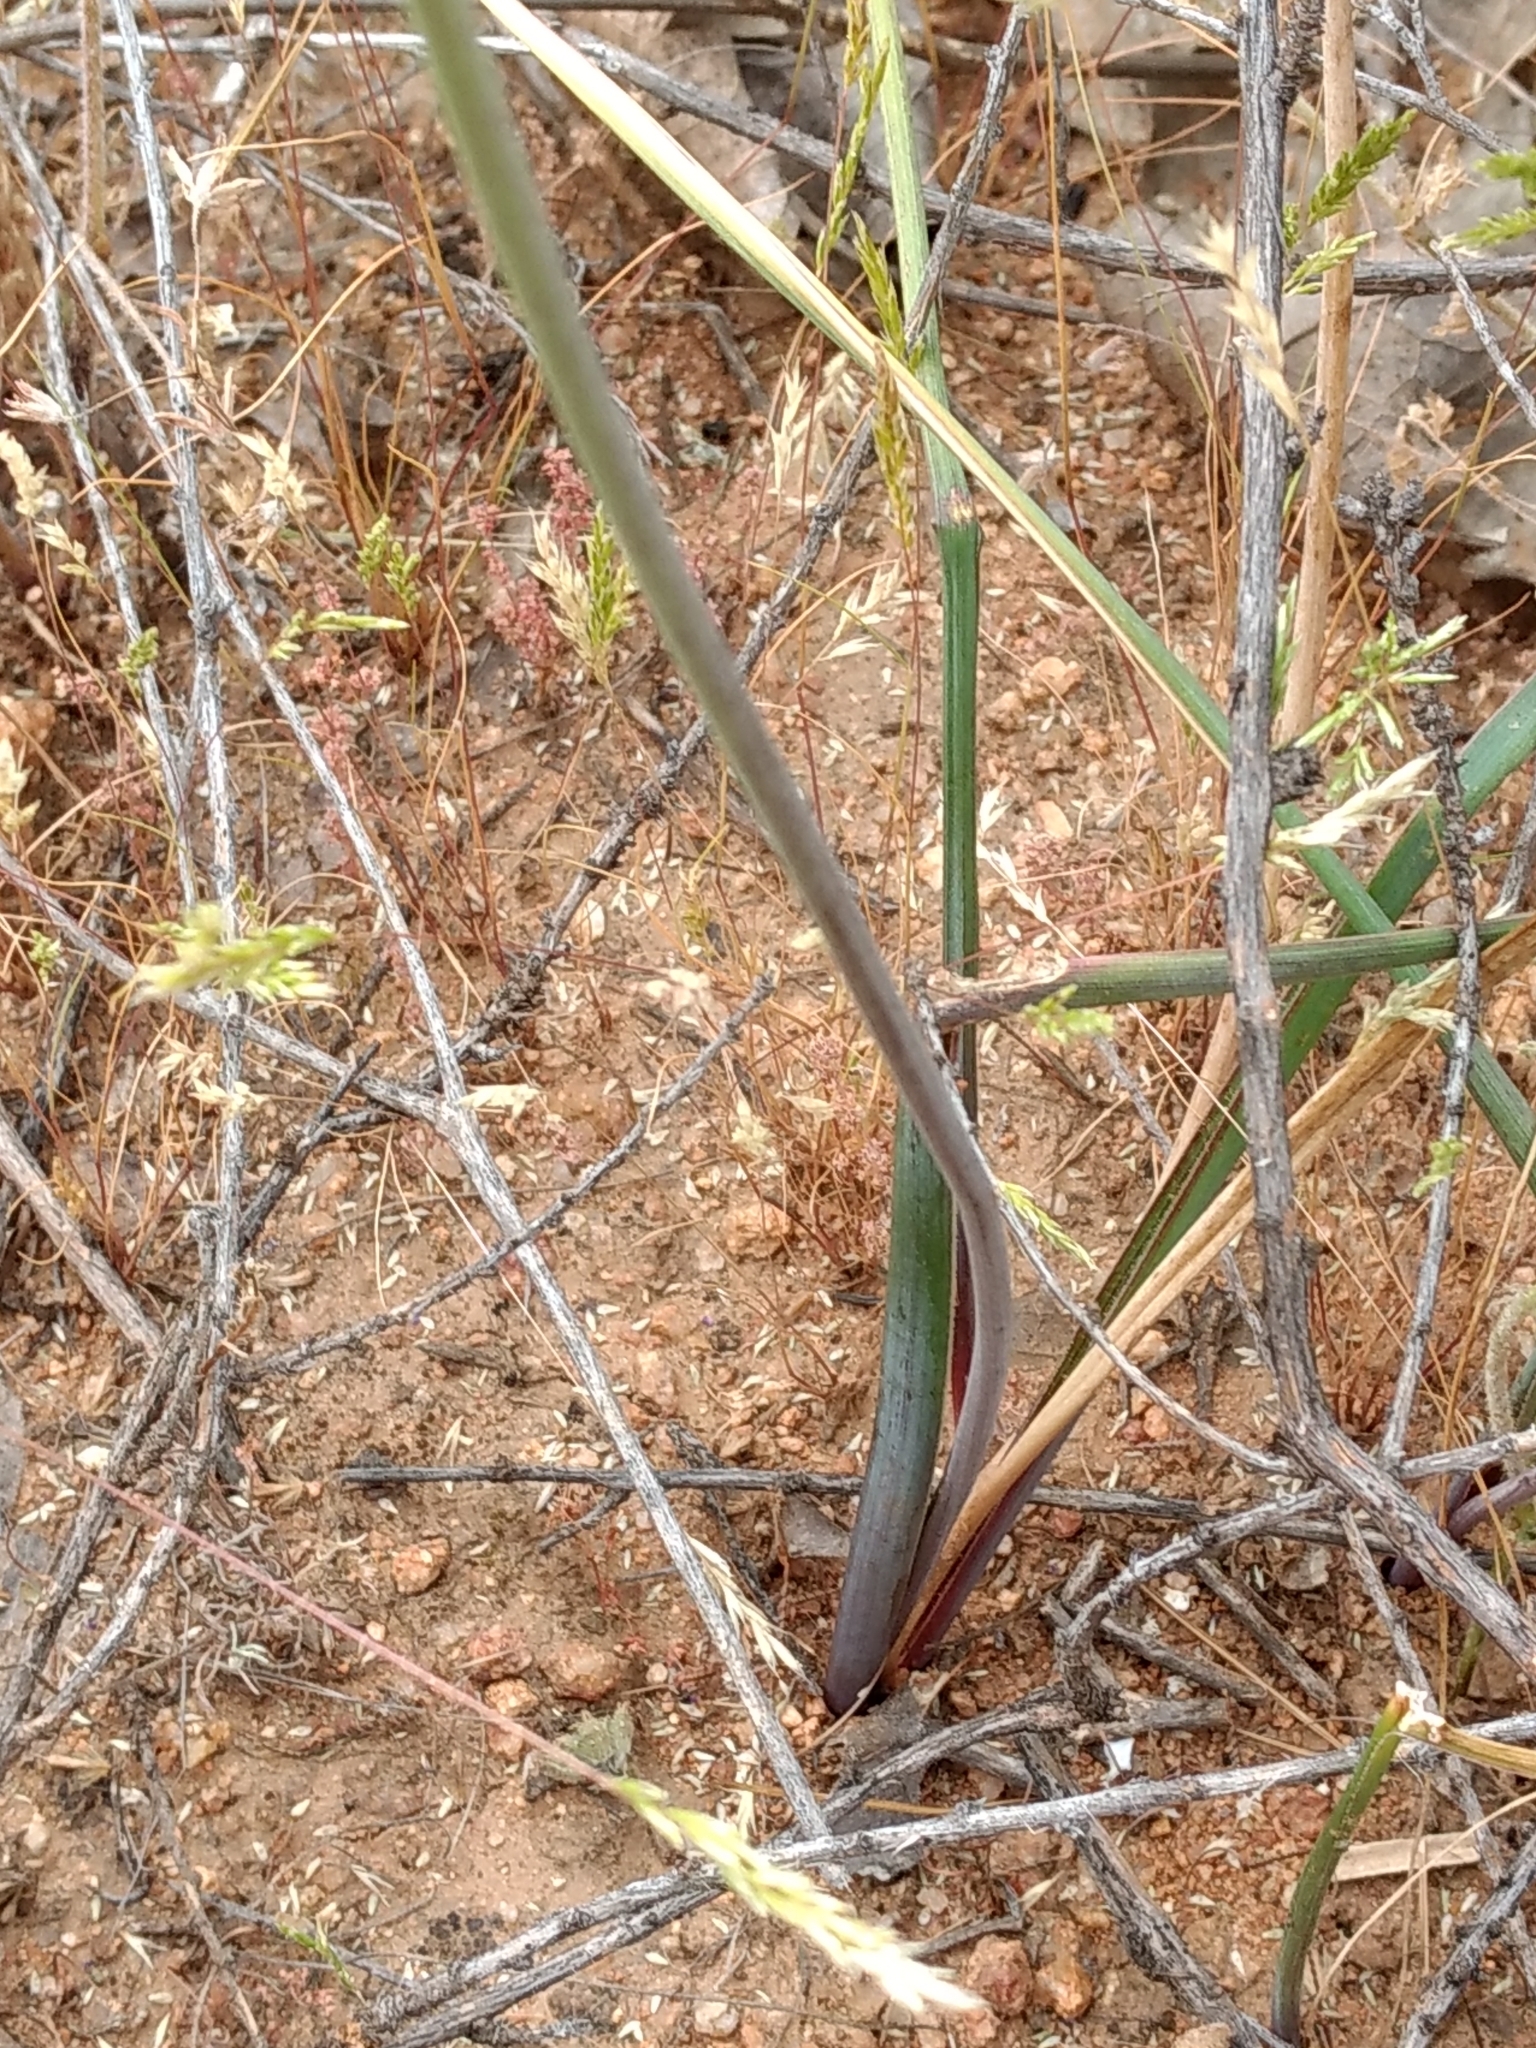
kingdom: Plantae
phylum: Tracheophyta
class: Liliopsida
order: Asparagales
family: Asparagaceae
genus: Dipterostemon
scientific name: Dipterostemon capitatus
